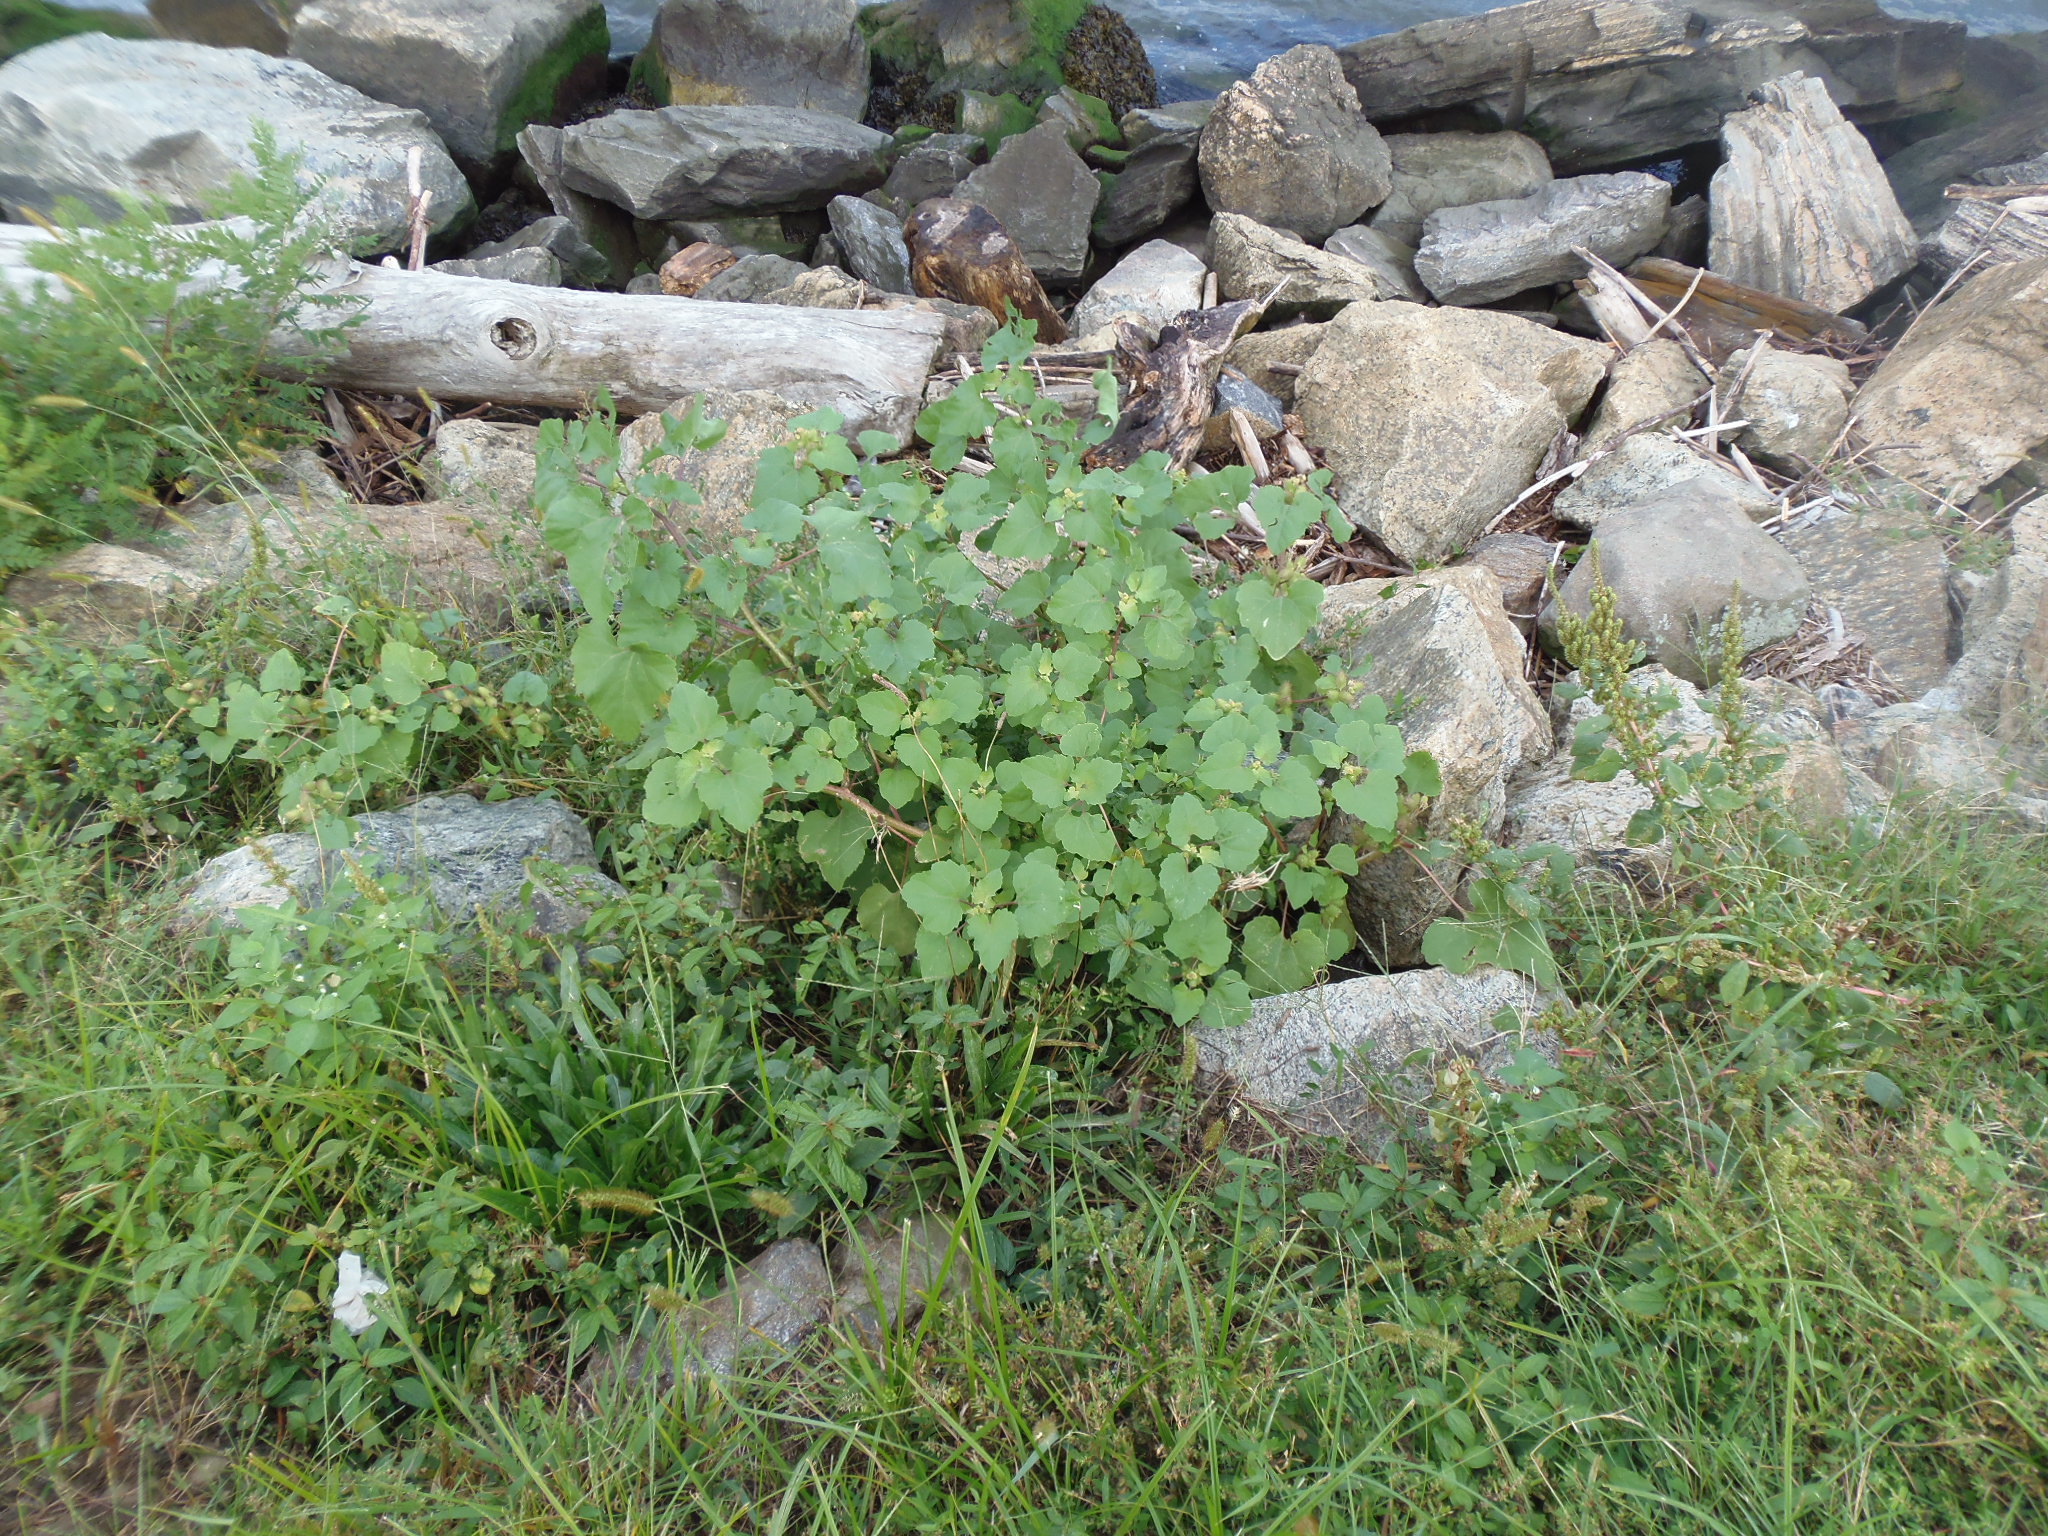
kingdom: Plantae
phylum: Tracheophyta
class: Magnoliopsida
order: Asterales
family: Asteraceae
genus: Xanthium
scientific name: Xanthium strumarium
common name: Rough cocklebur
